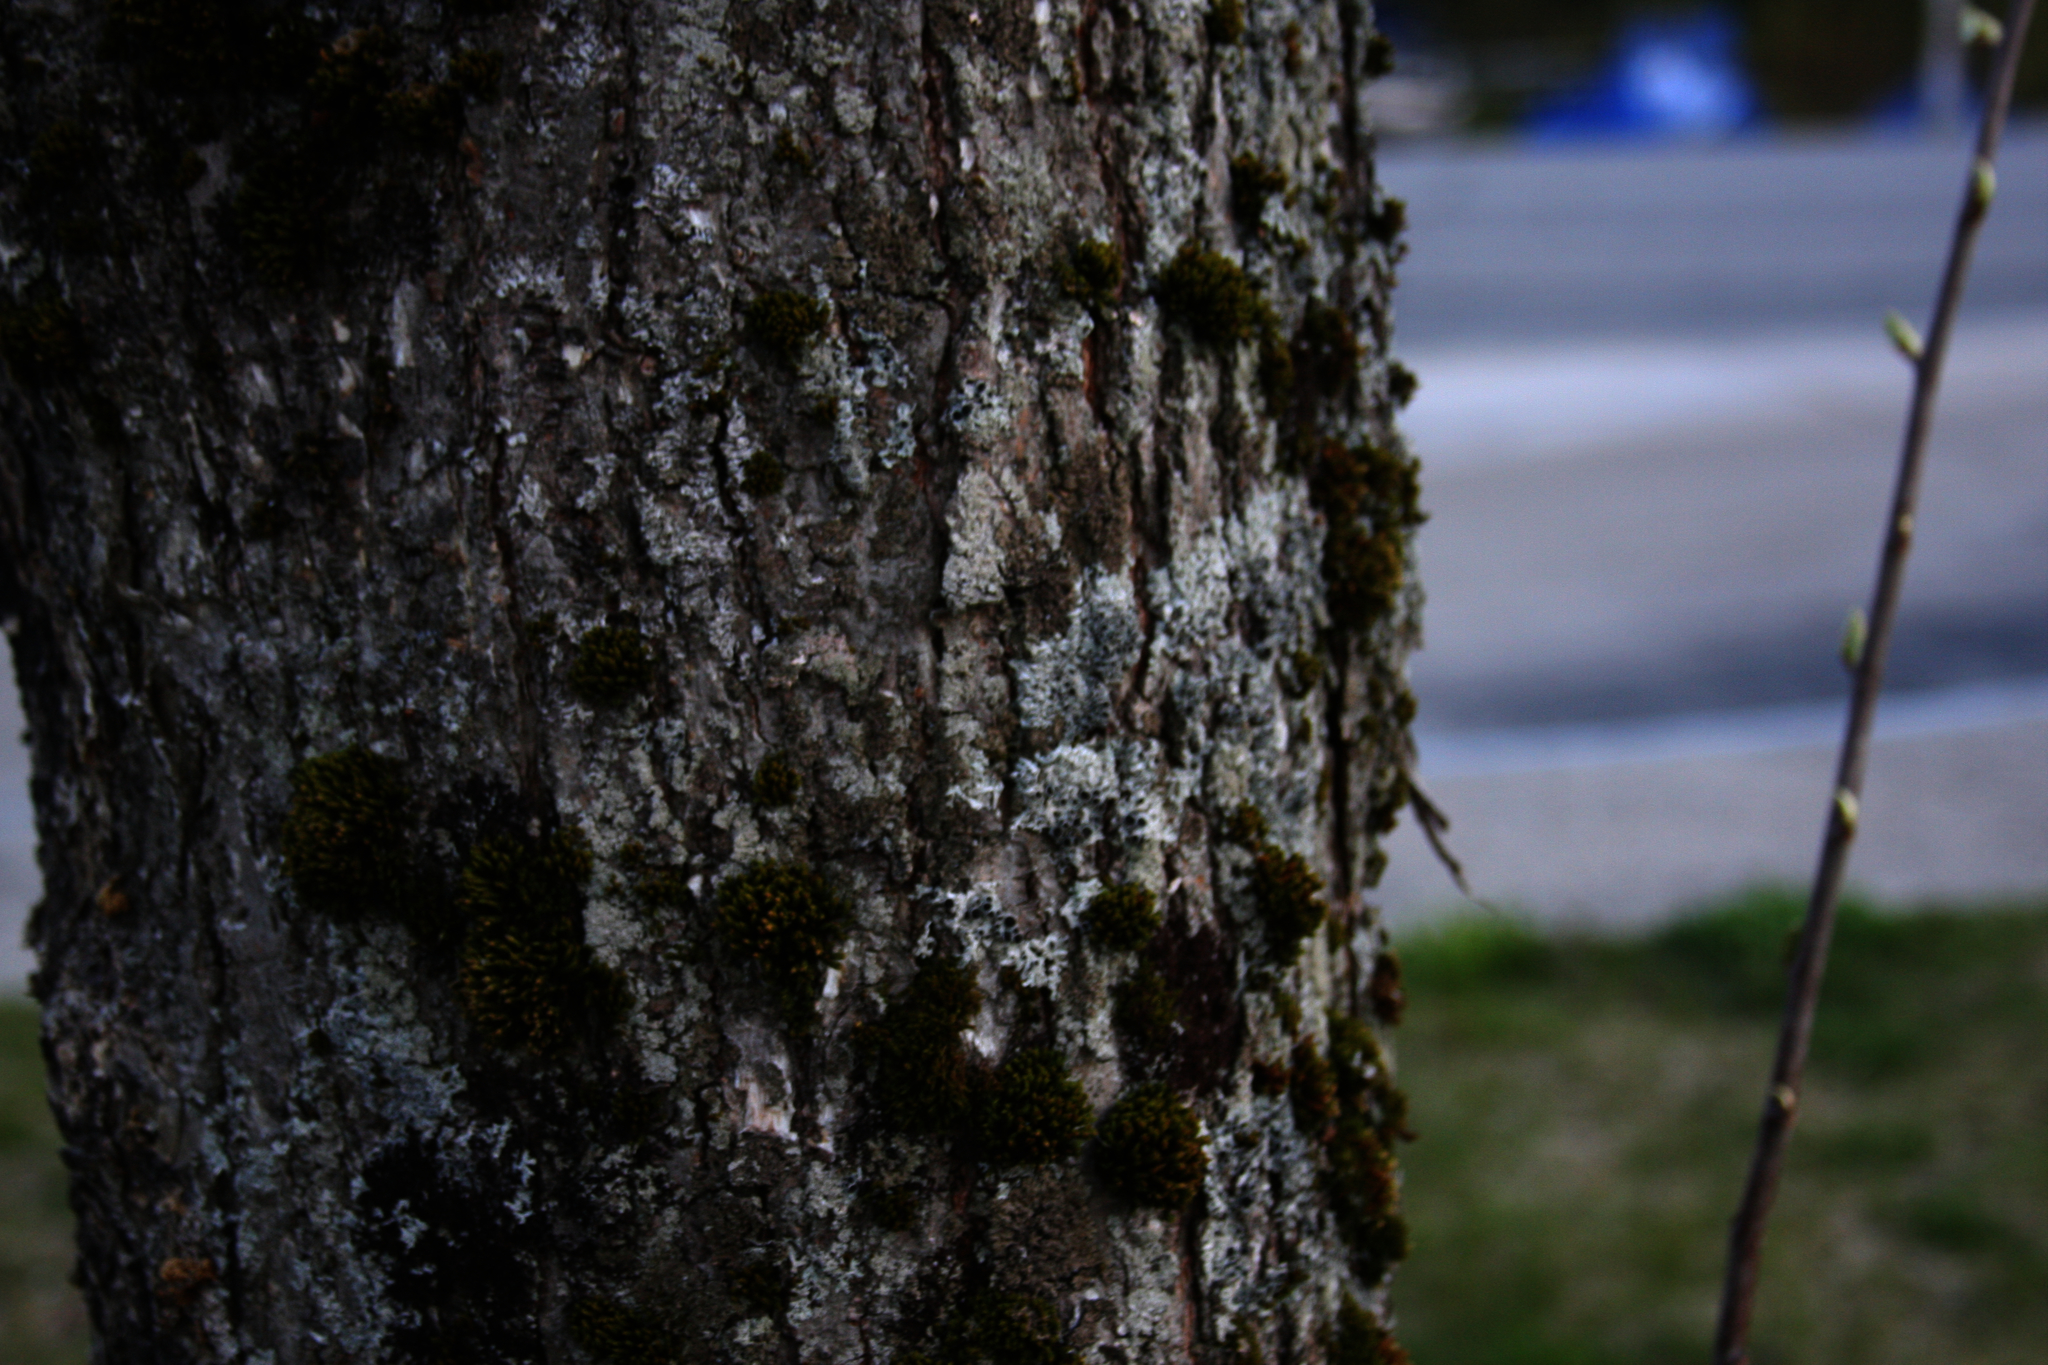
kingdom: Plantae
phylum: Bryophyta
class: Bryopsida
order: Orthotrichales
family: Orthotrichaceae
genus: Ulota
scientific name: Ulota crispa
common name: Crisped pincushion moss
